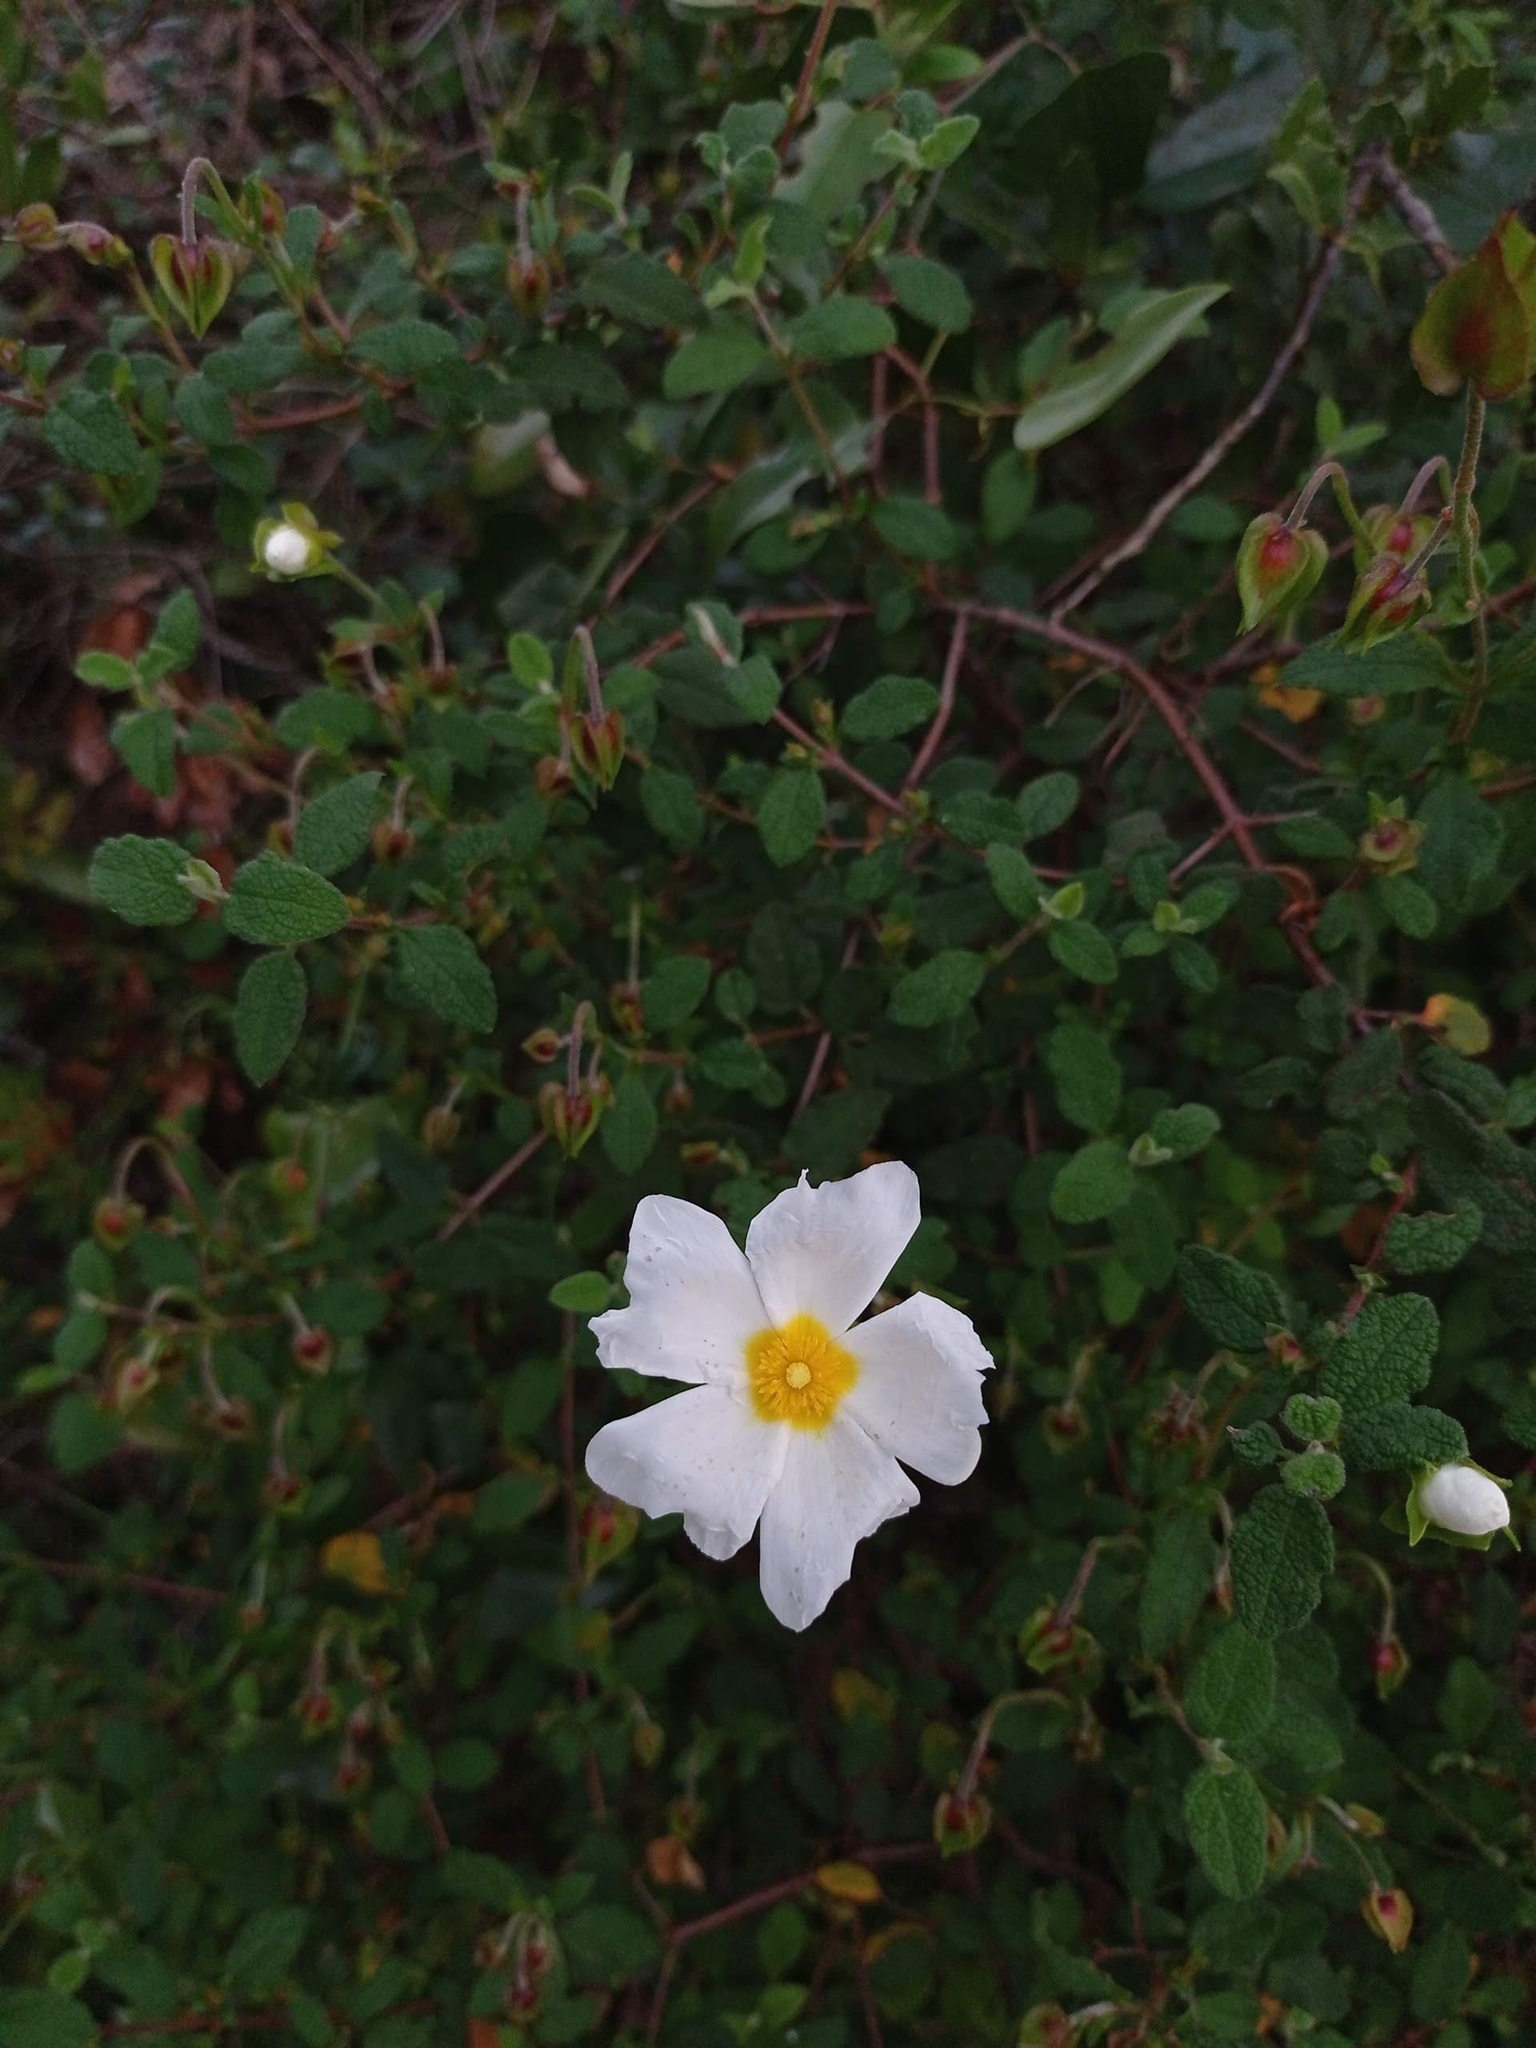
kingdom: Plantae
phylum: Tracheophyta
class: Magnoliopsida
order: Malvales
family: Cistaceae
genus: Cistus
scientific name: Cistus salviifolius
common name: Salvia cistus
